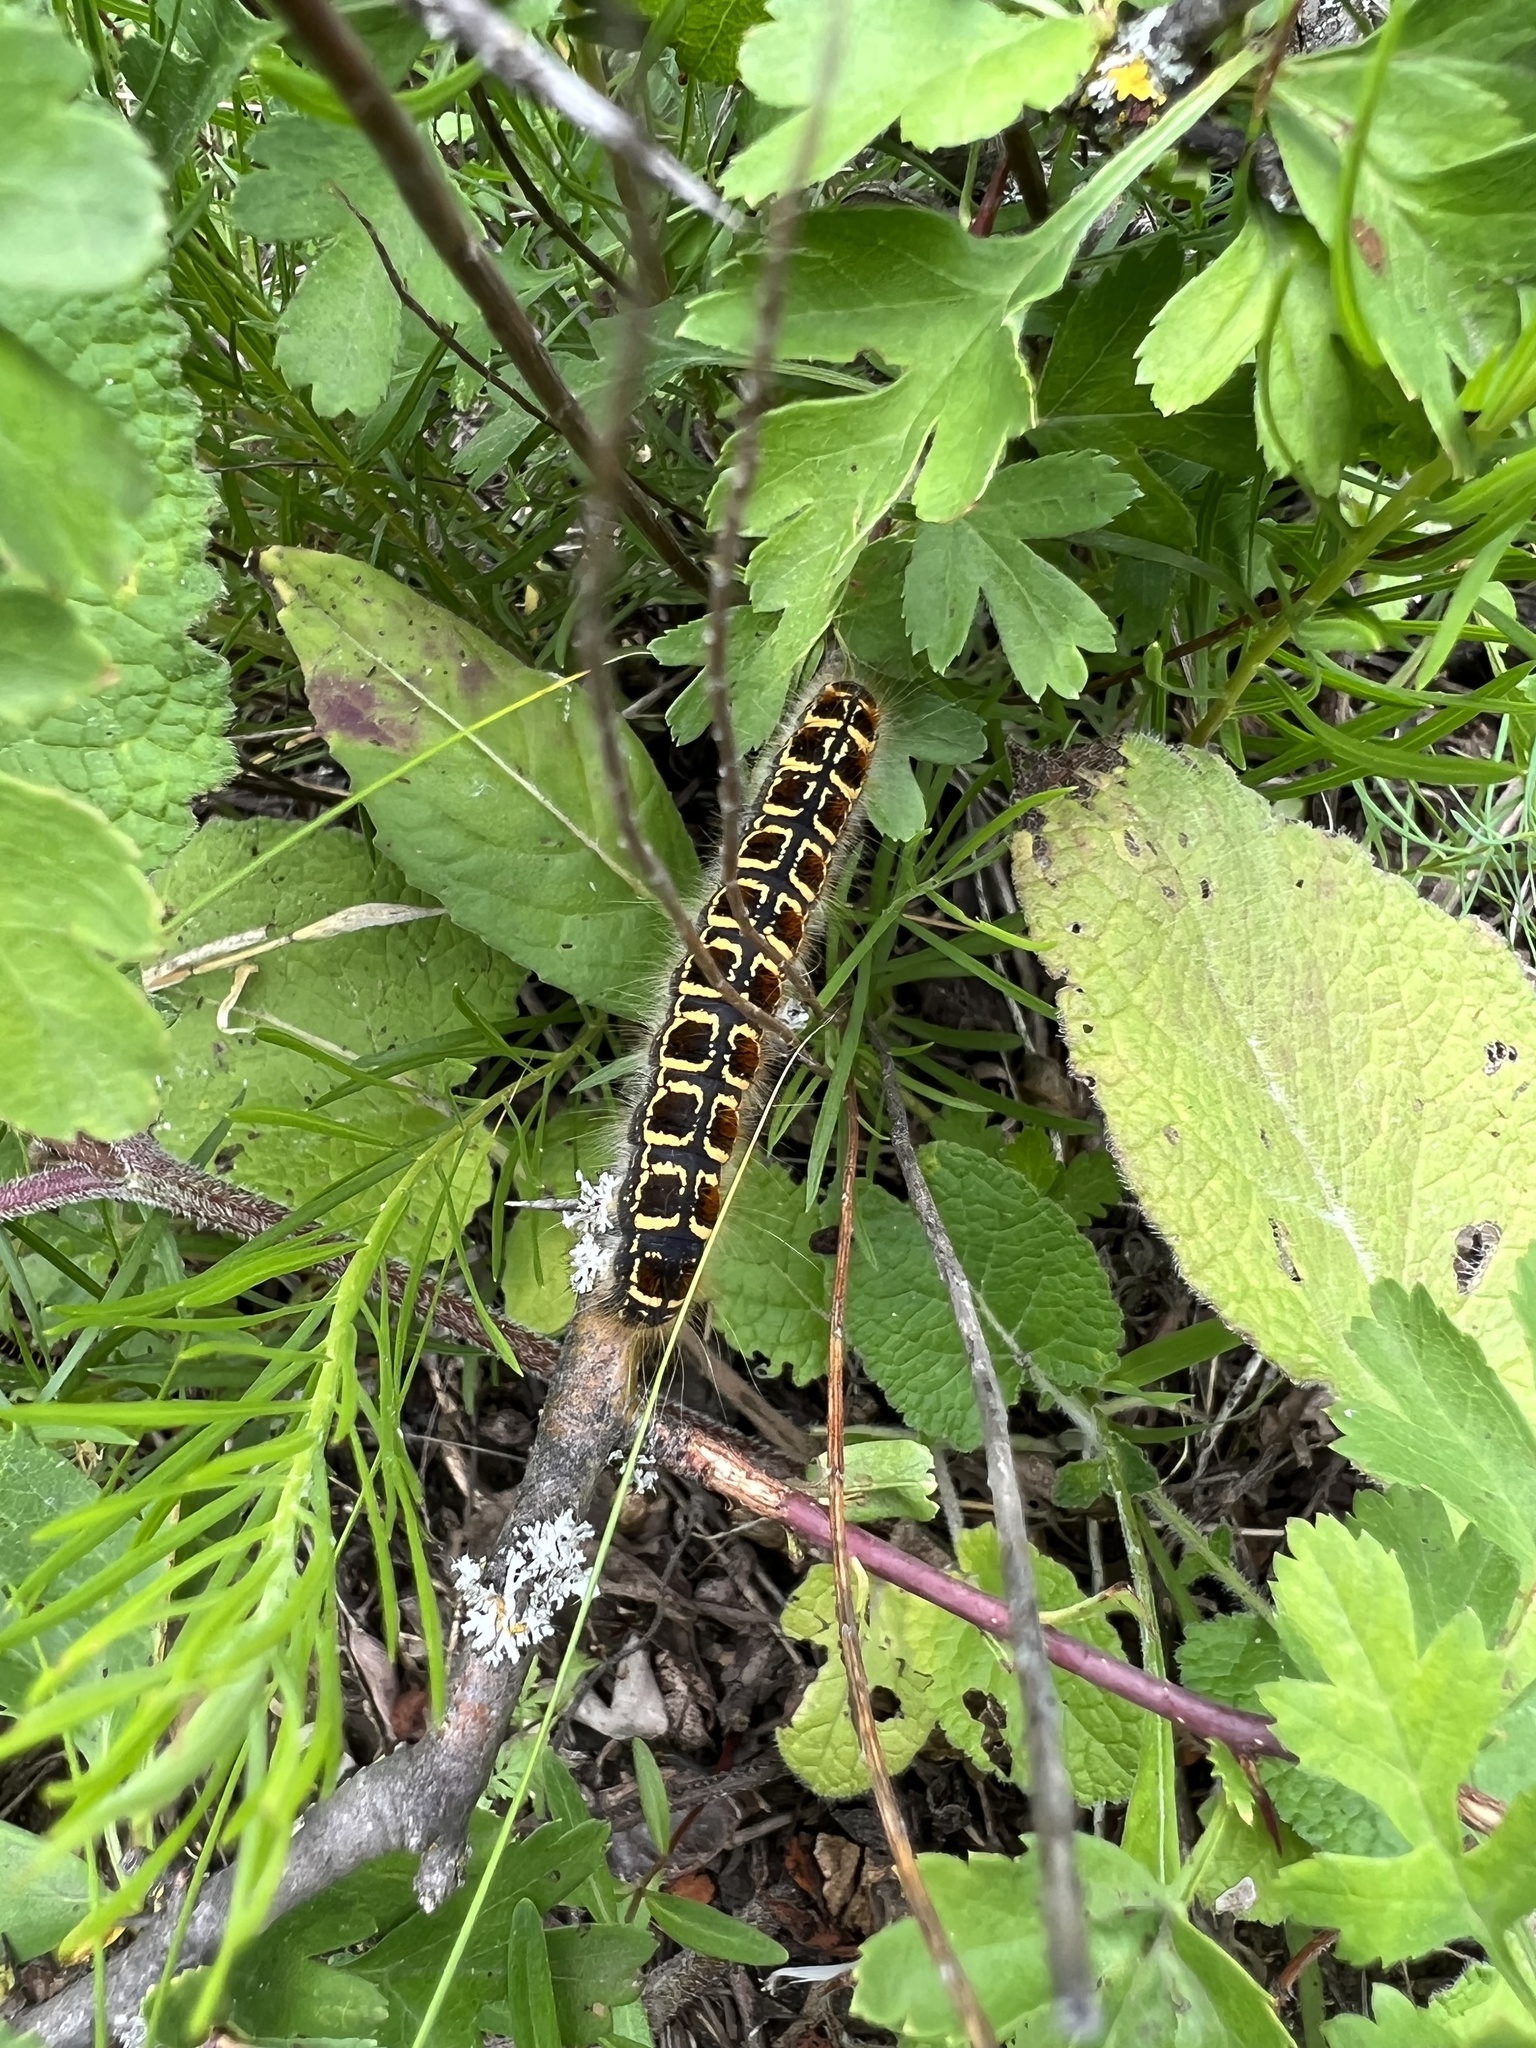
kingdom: Animalia
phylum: Arthropoda
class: Insecta
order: Lepidoptera
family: Lasiocampidae
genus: Eriogaster
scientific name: Eriogaster lanestris
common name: Small eggar
